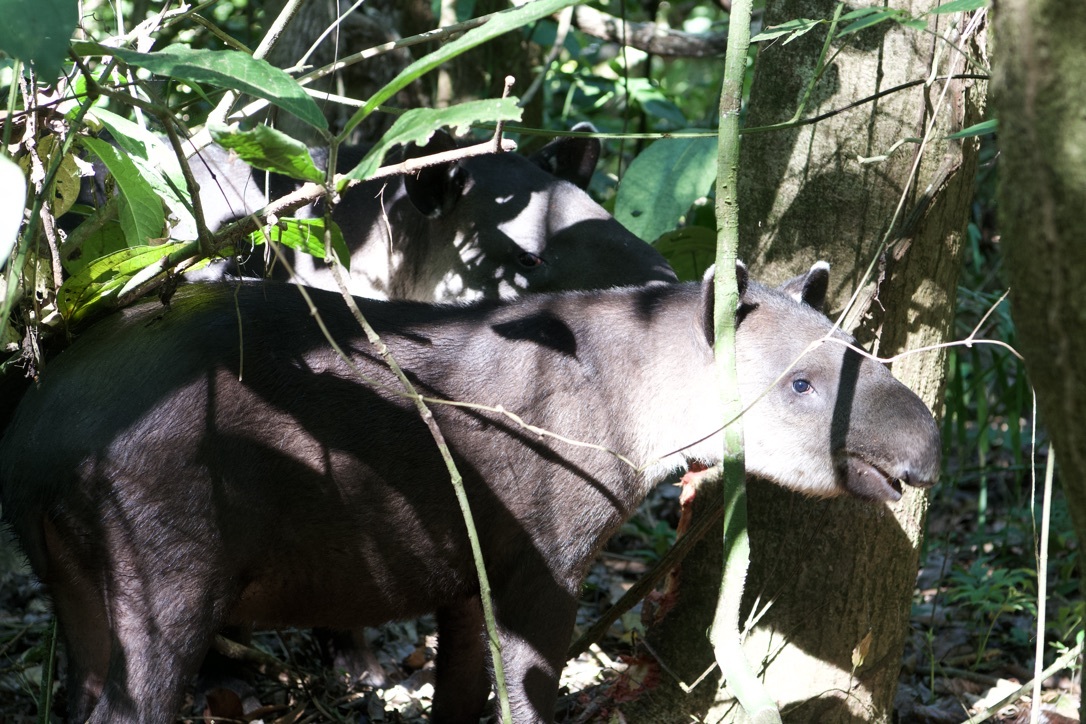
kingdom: Animalia
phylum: Chordata
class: Mammalia
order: Perissodactyla
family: Tapiridae
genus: Tapirella
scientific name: Tapirella bairdii
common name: Baird's tapir
